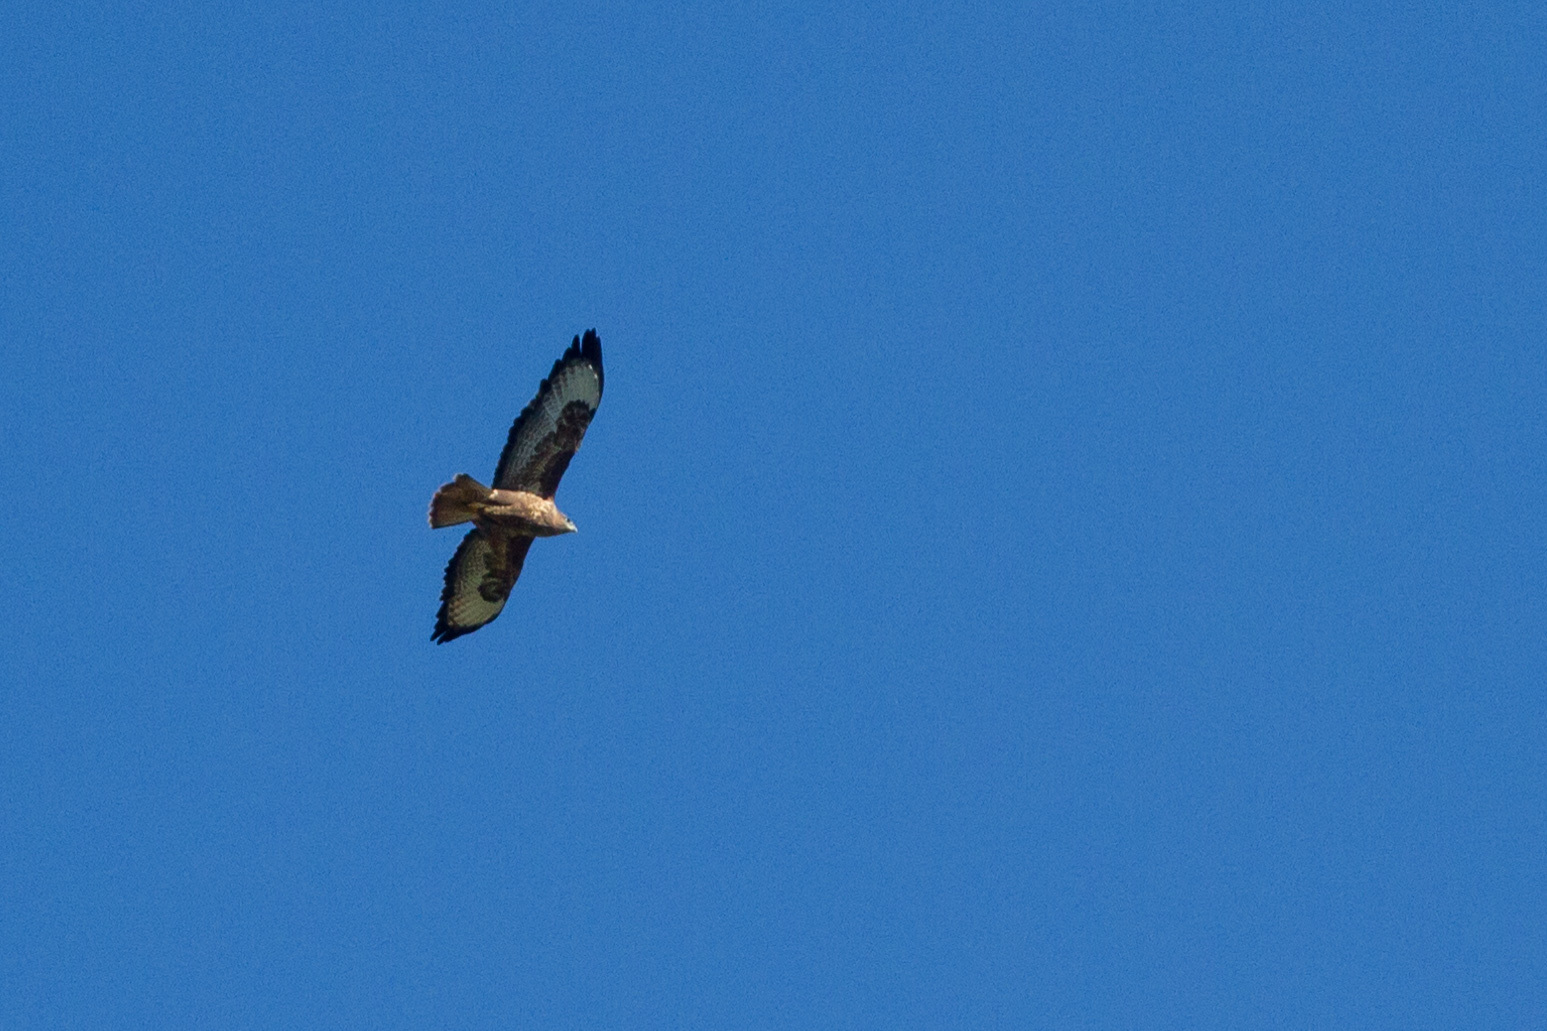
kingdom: Animalia
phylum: Chordata
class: Aves
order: Accipitriformes
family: Accipitridae
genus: Buteo
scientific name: Buteo buteo
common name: Common buzzard
